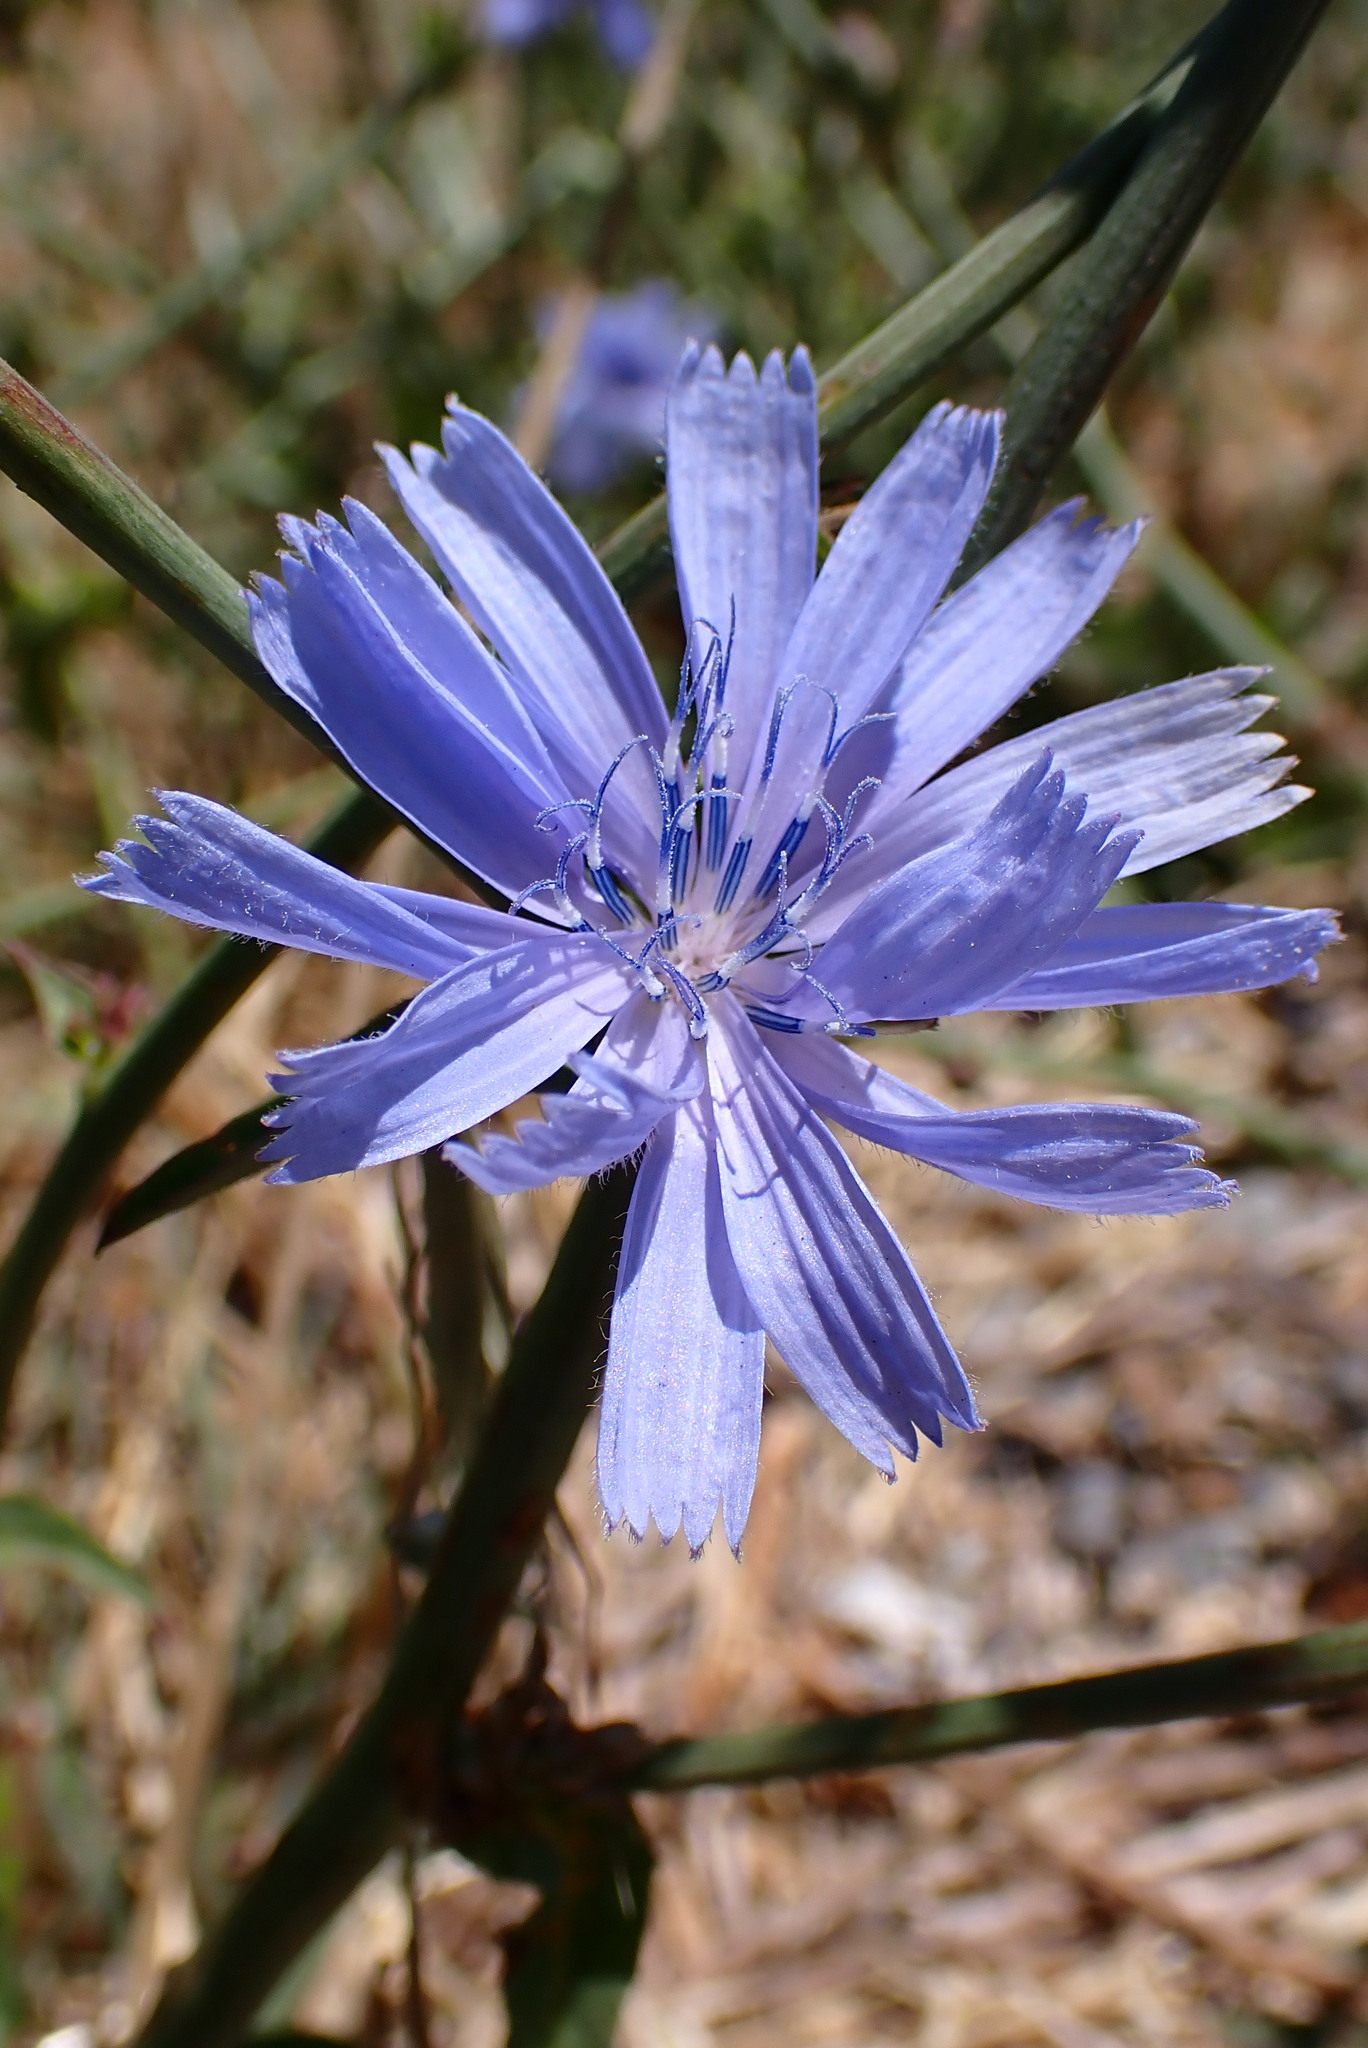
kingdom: Plantae
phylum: Tracheophyta
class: Magnoliopsida
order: Asterales
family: Asteraceae
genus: Cichorium
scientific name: Cichorium intybus
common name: Chicory
